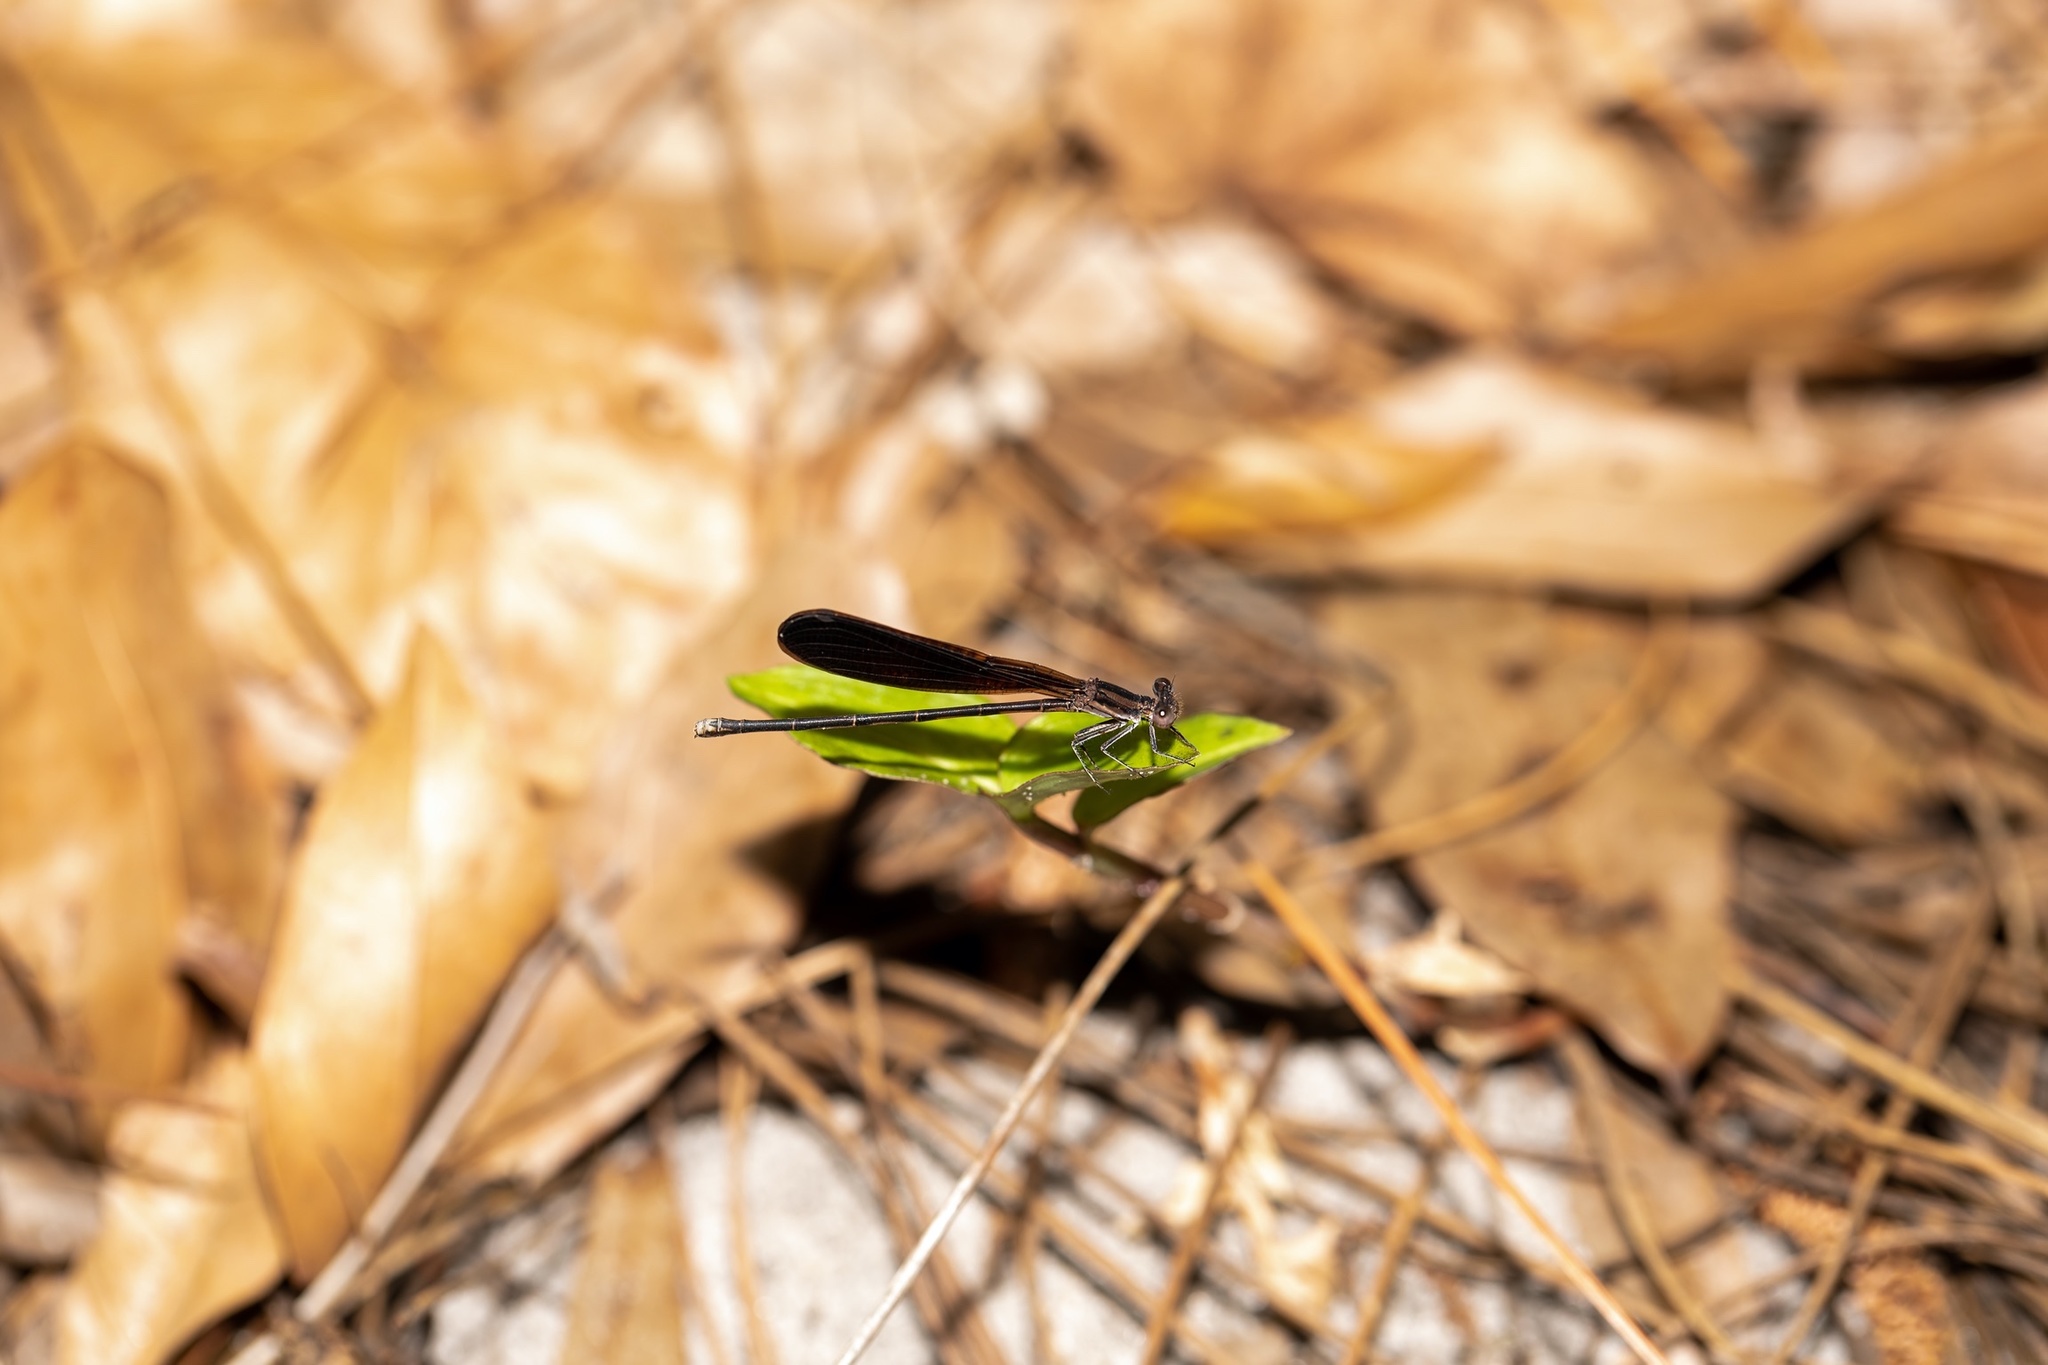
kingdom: Animalia
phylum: Arthropoda
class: Insecta
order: Odonata
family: Coenagrionidae
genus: Argia
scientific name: Argia fumipennis
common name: Variable dancer
